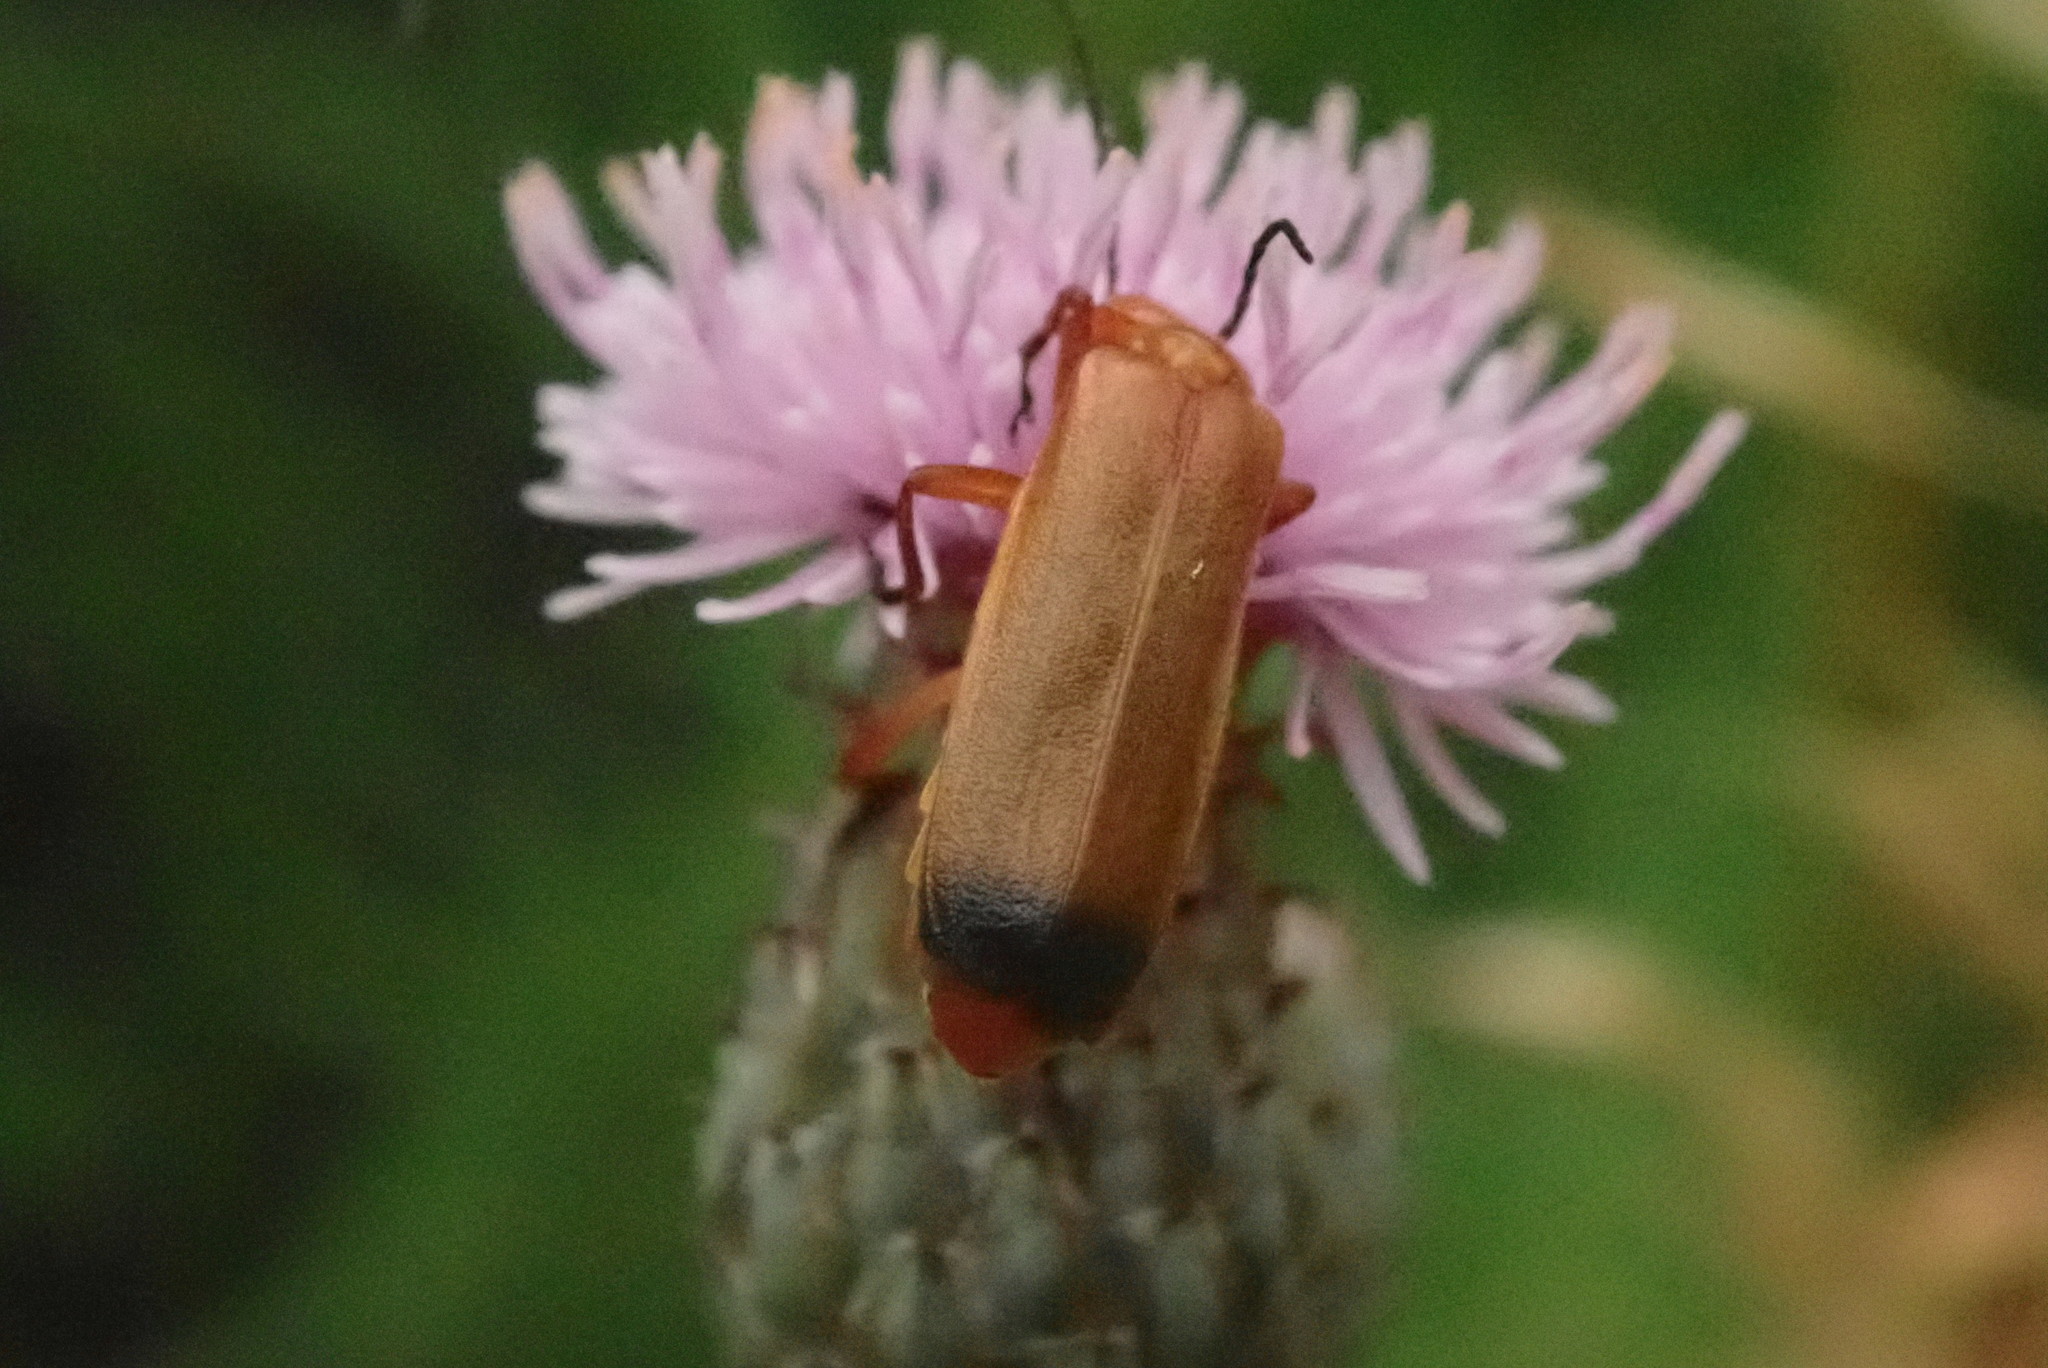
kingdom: Animalia
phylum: Arthropoda
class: Insecta
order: Coleoptera
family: Cantharidae
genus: Rhagonycha
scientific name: Rhagonycha fulva
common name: Common red soldier beetle
